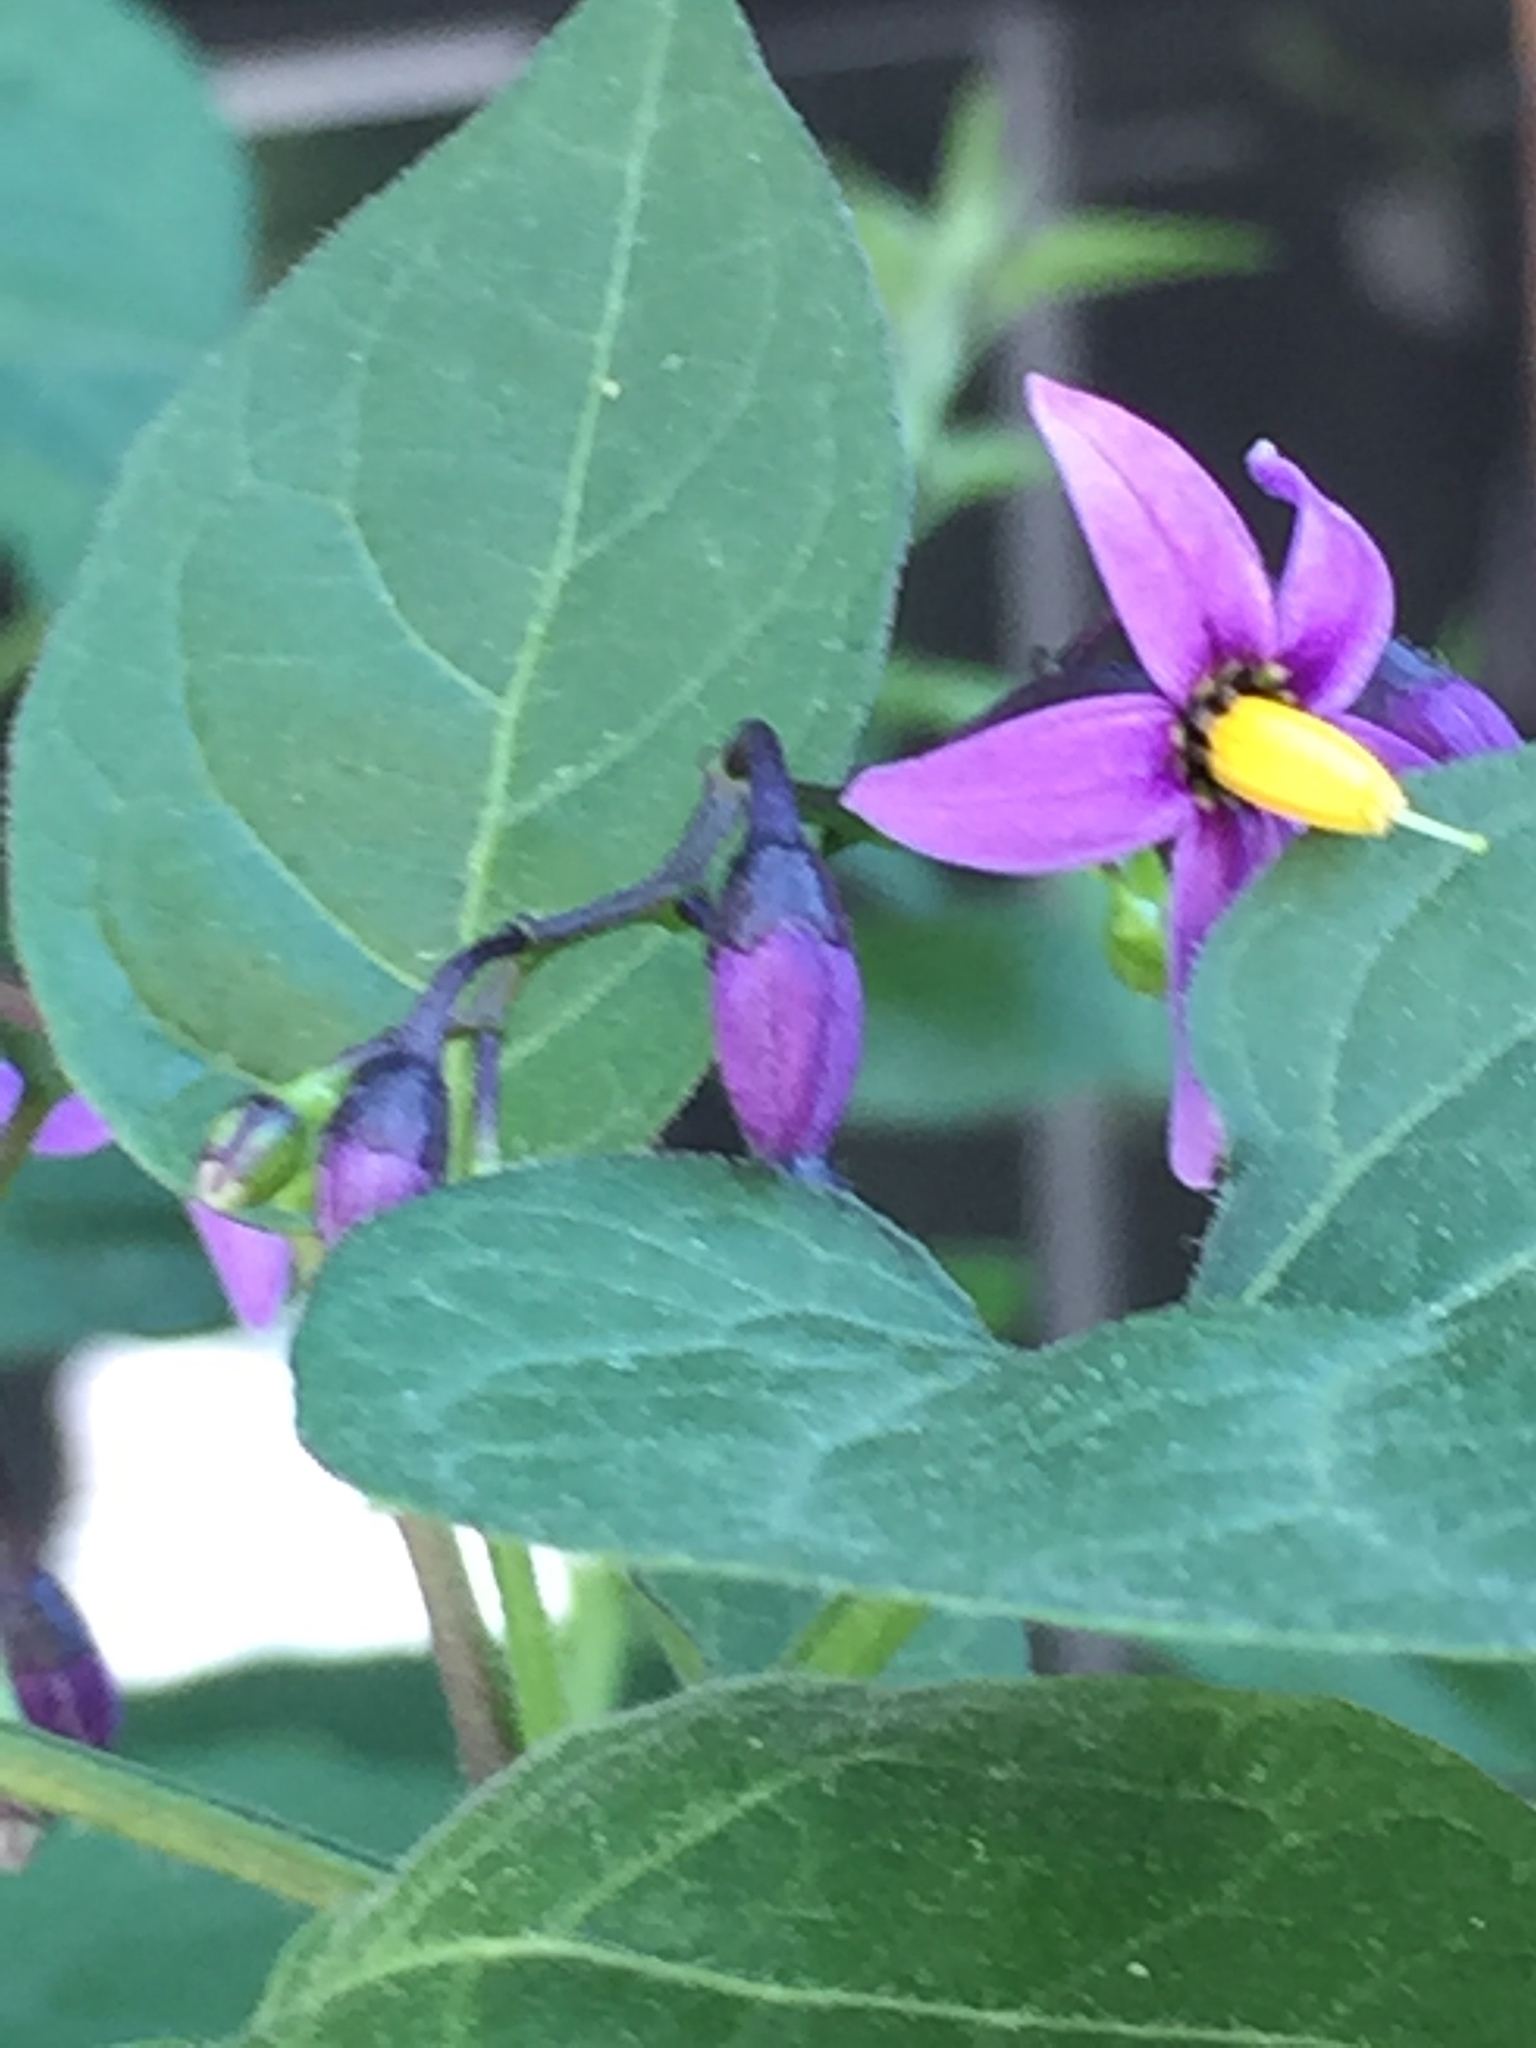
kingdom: Plantae
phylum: Tracheophyta
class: Magnoliopsida
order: Solanales
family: Solanaceae
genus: Solanum
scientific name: Solanum dulcamara
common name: Climbing nightshade
